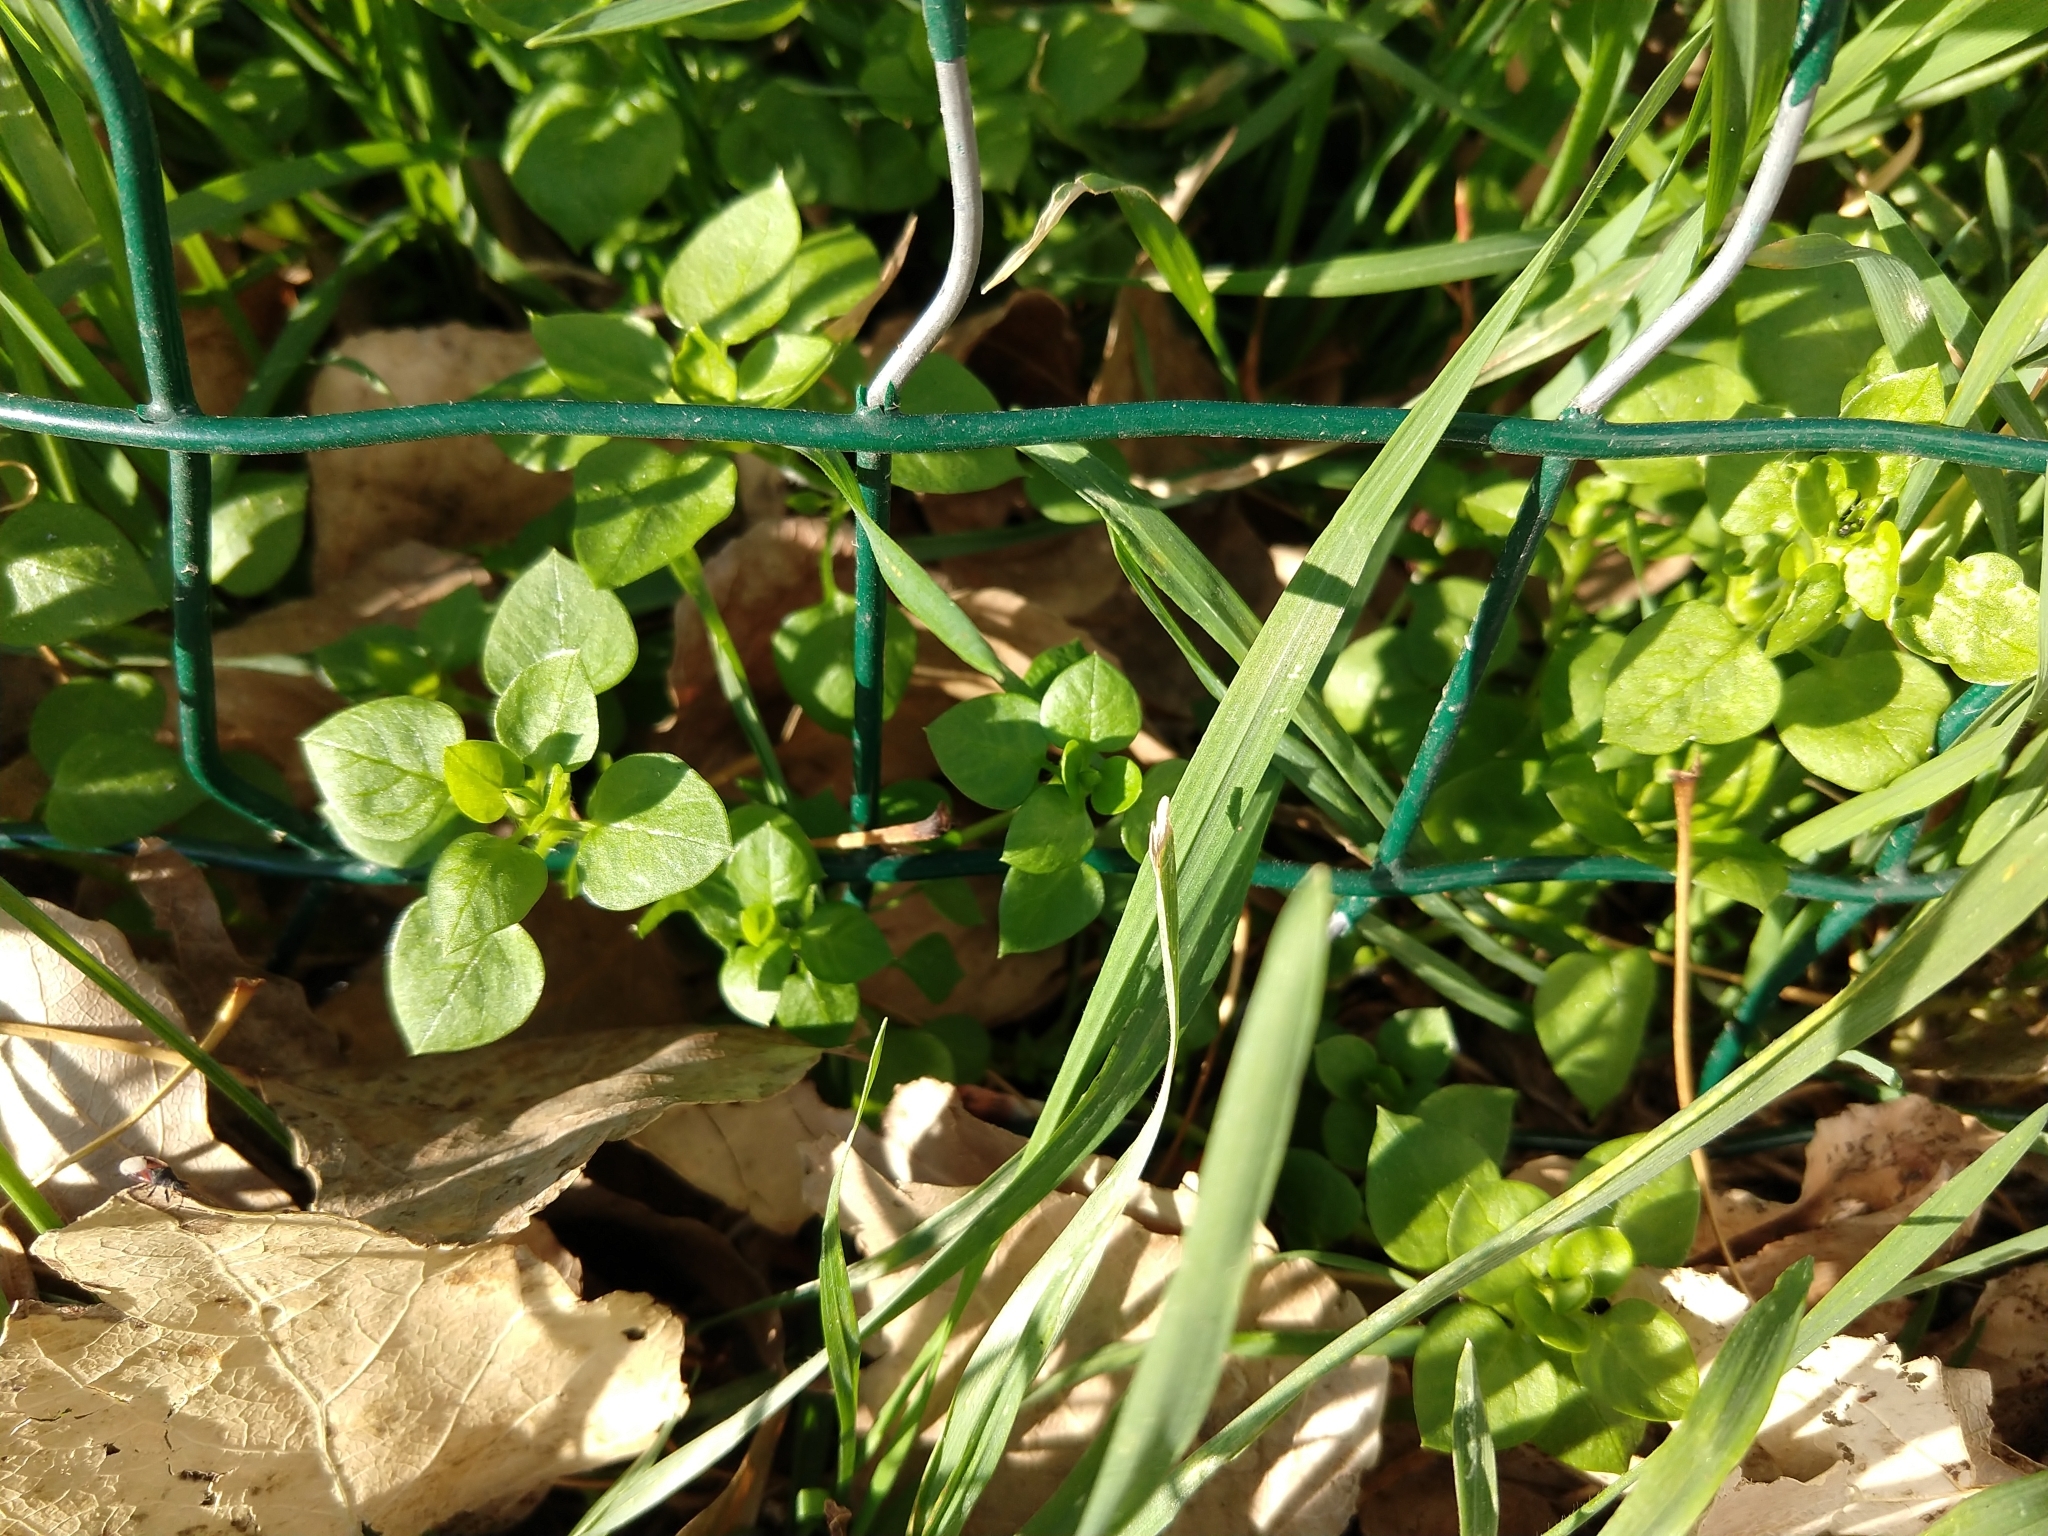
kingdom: Plantae
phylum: Tracheophyta
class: Magnoliopsida
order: Caryophyllales
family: Caryophyllaceae
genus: Stellaria
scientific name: Stellaria media
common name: Common chickweed
